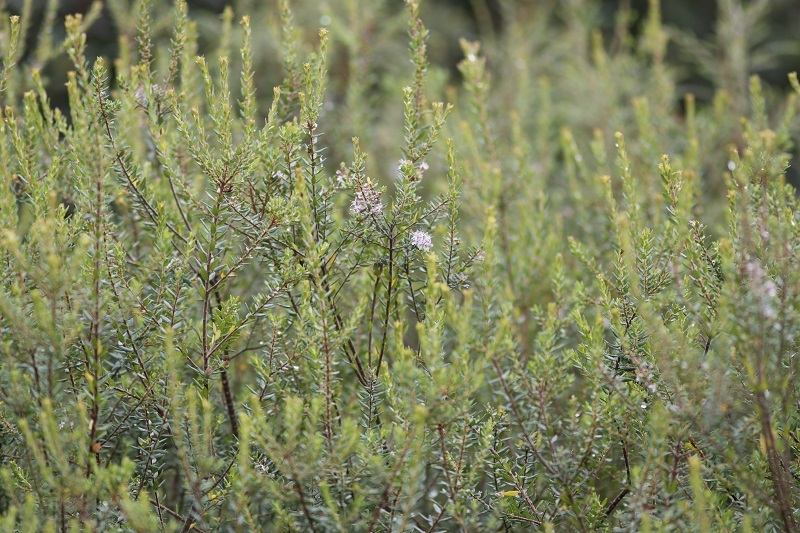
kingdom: Plantae
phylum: Tracheophyta
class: Magnoliopsida
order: Sapindales
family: Rutaceae
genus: Agathosma
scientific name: Agathosma ovata
